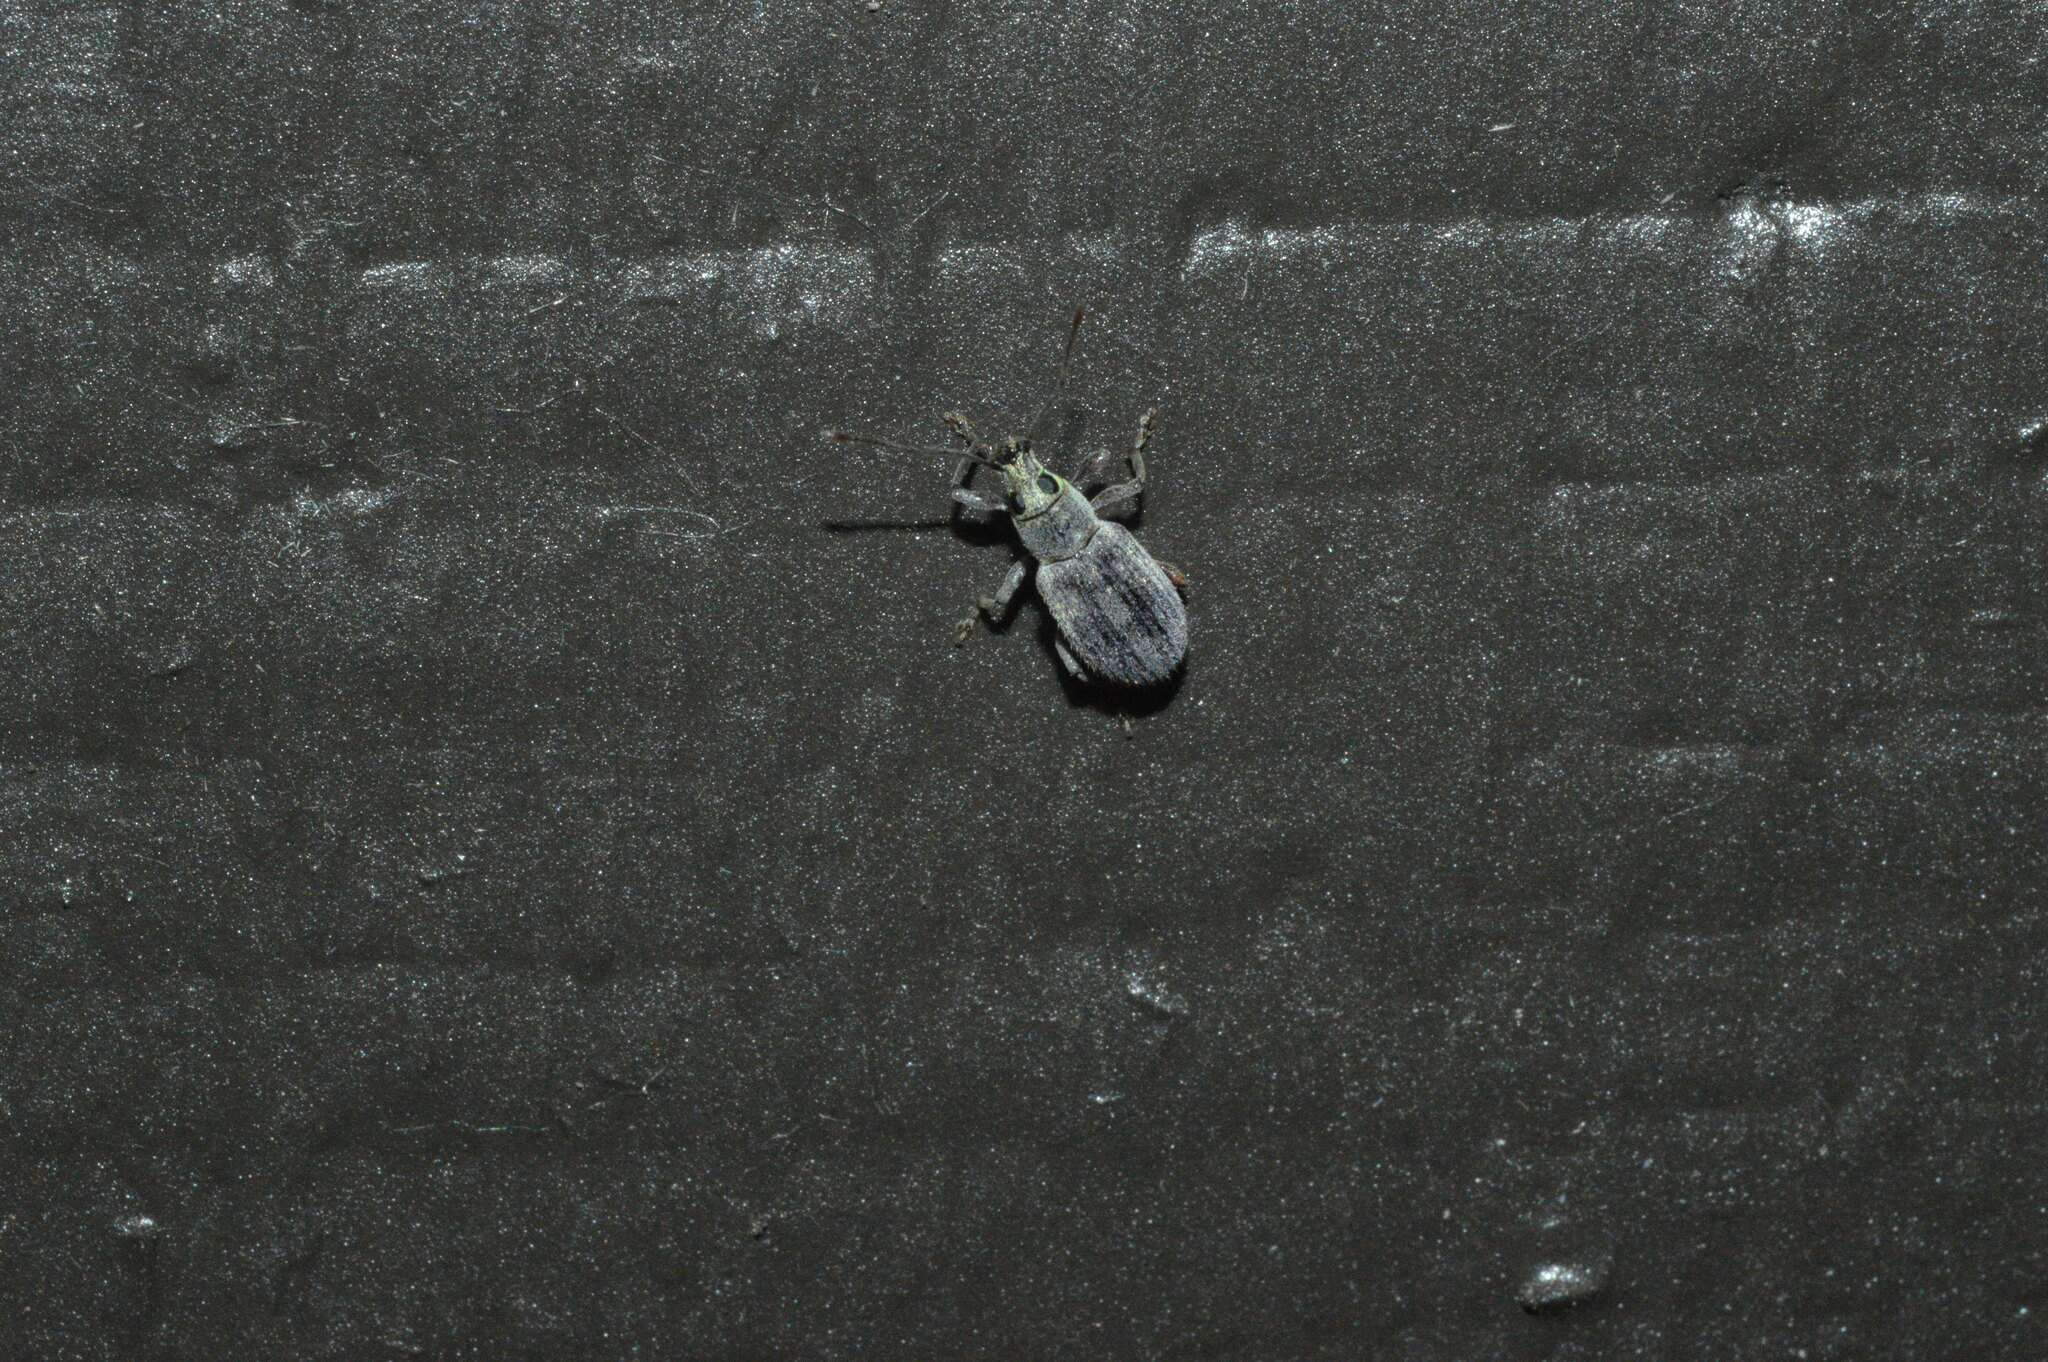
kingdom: Animalia
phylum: Arthropoda
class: Insecta
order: Coleoptera
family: Curculionidae
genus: Cyrtepistomus
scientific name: Cyrtepistomus castaneus
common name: Weevil
